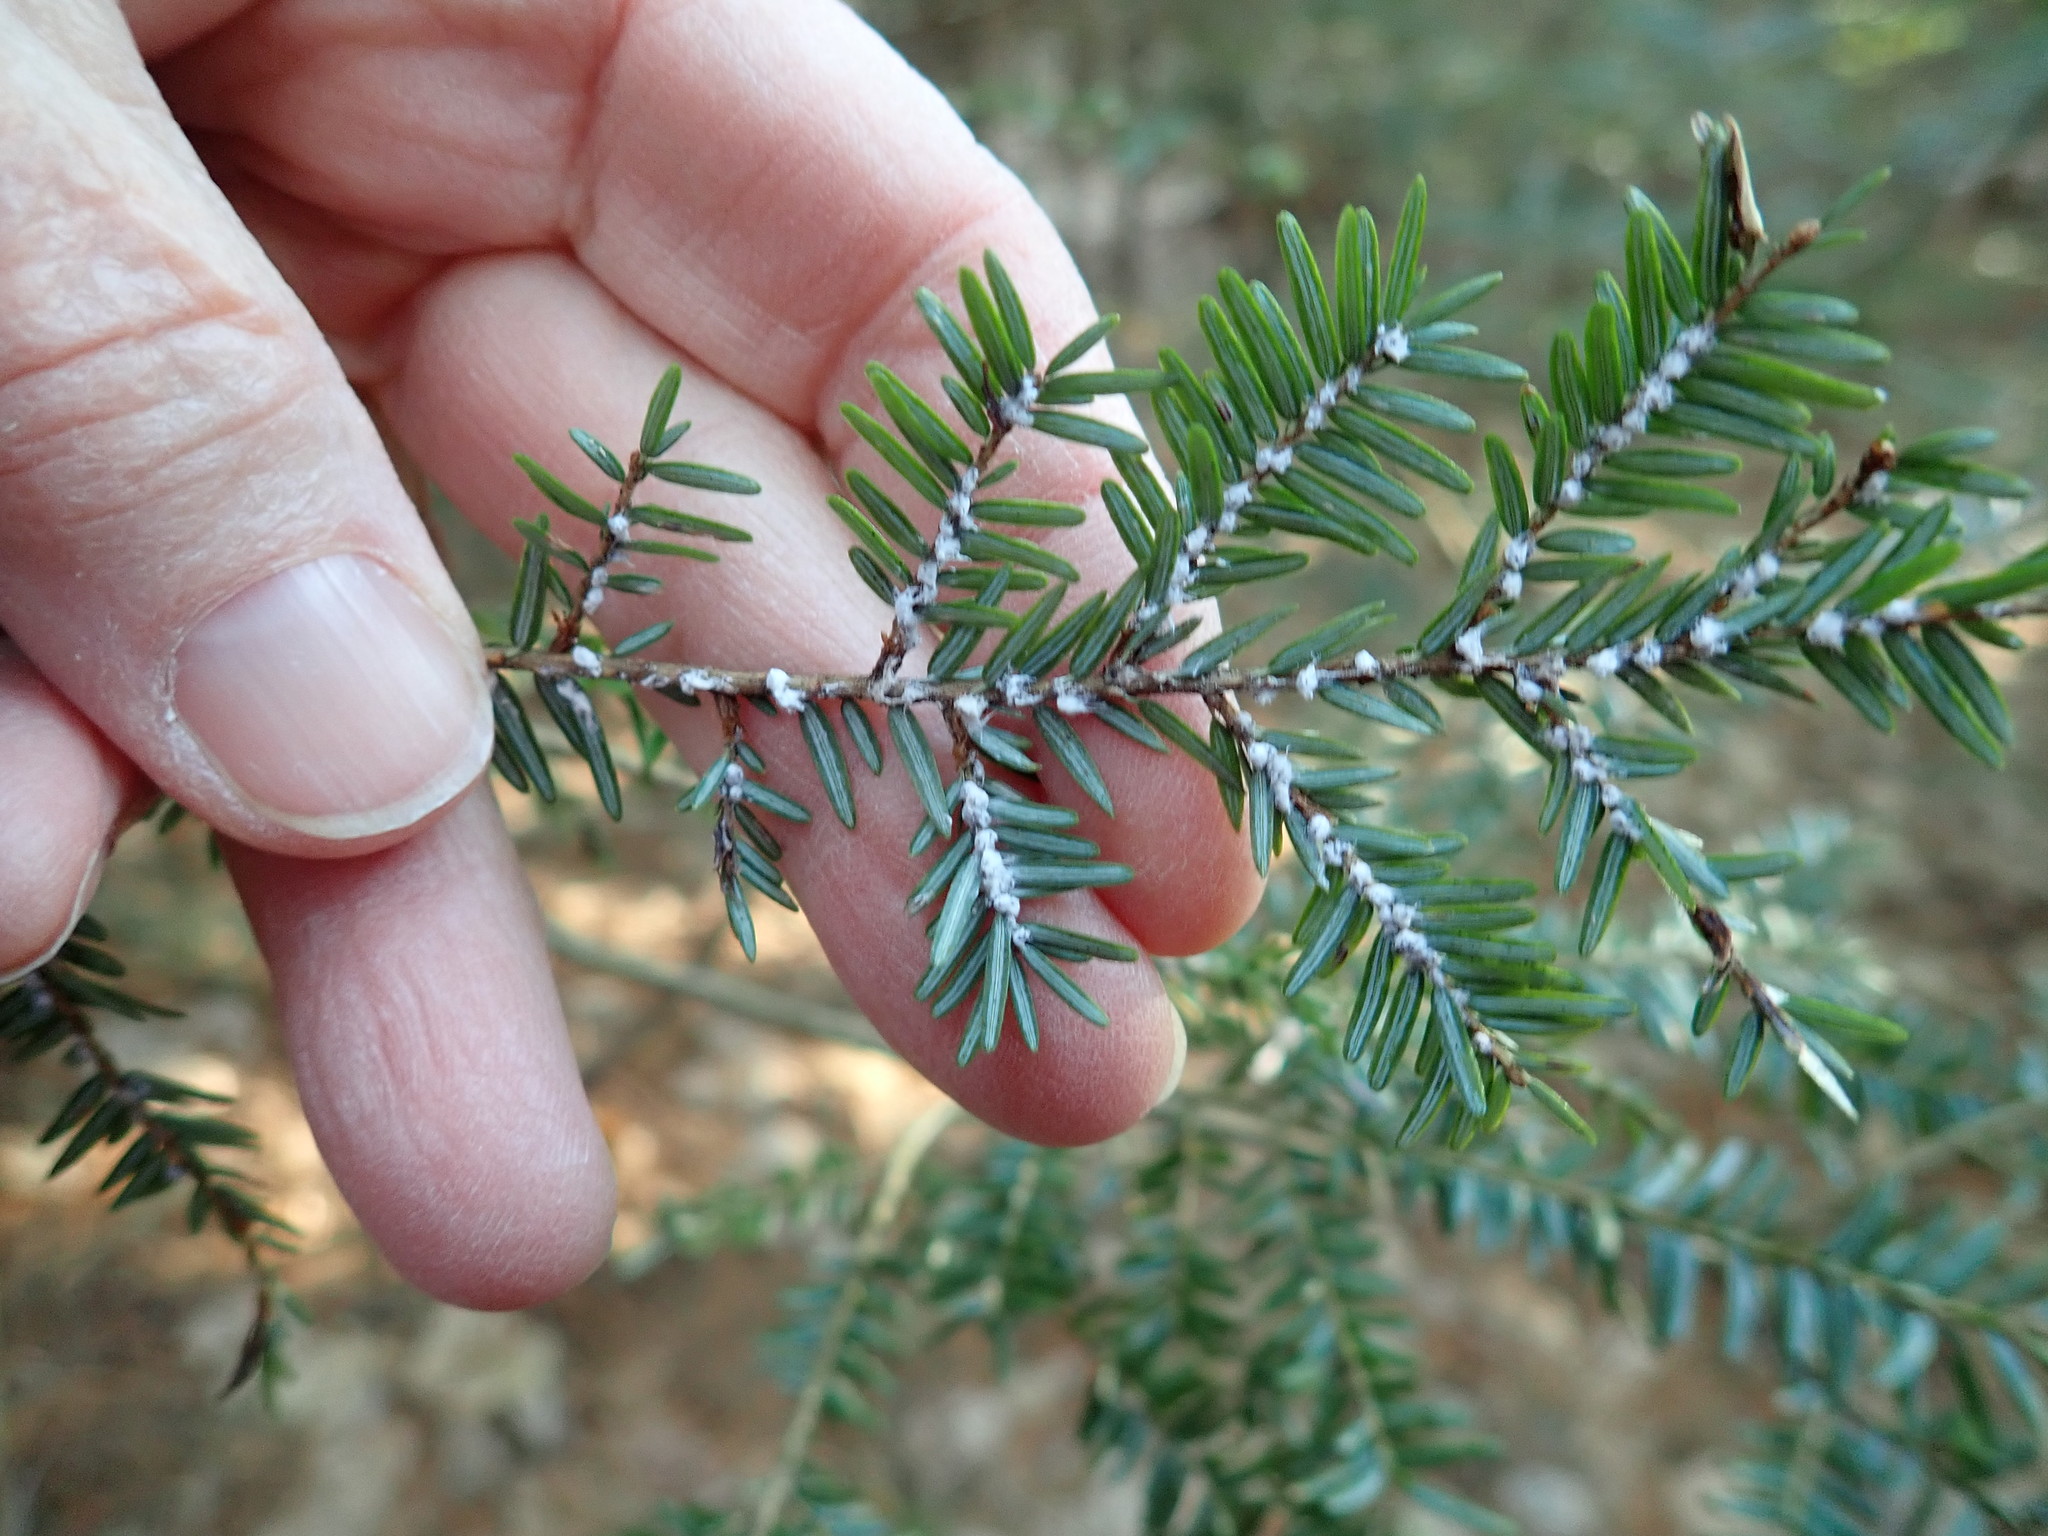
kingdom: Animalia
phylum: Arthropoda
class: Insecta
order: Hemiptera
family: Adelgidae
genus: Adelges
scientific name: Adelges tsugae
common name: Hemlock woolly adelgid
